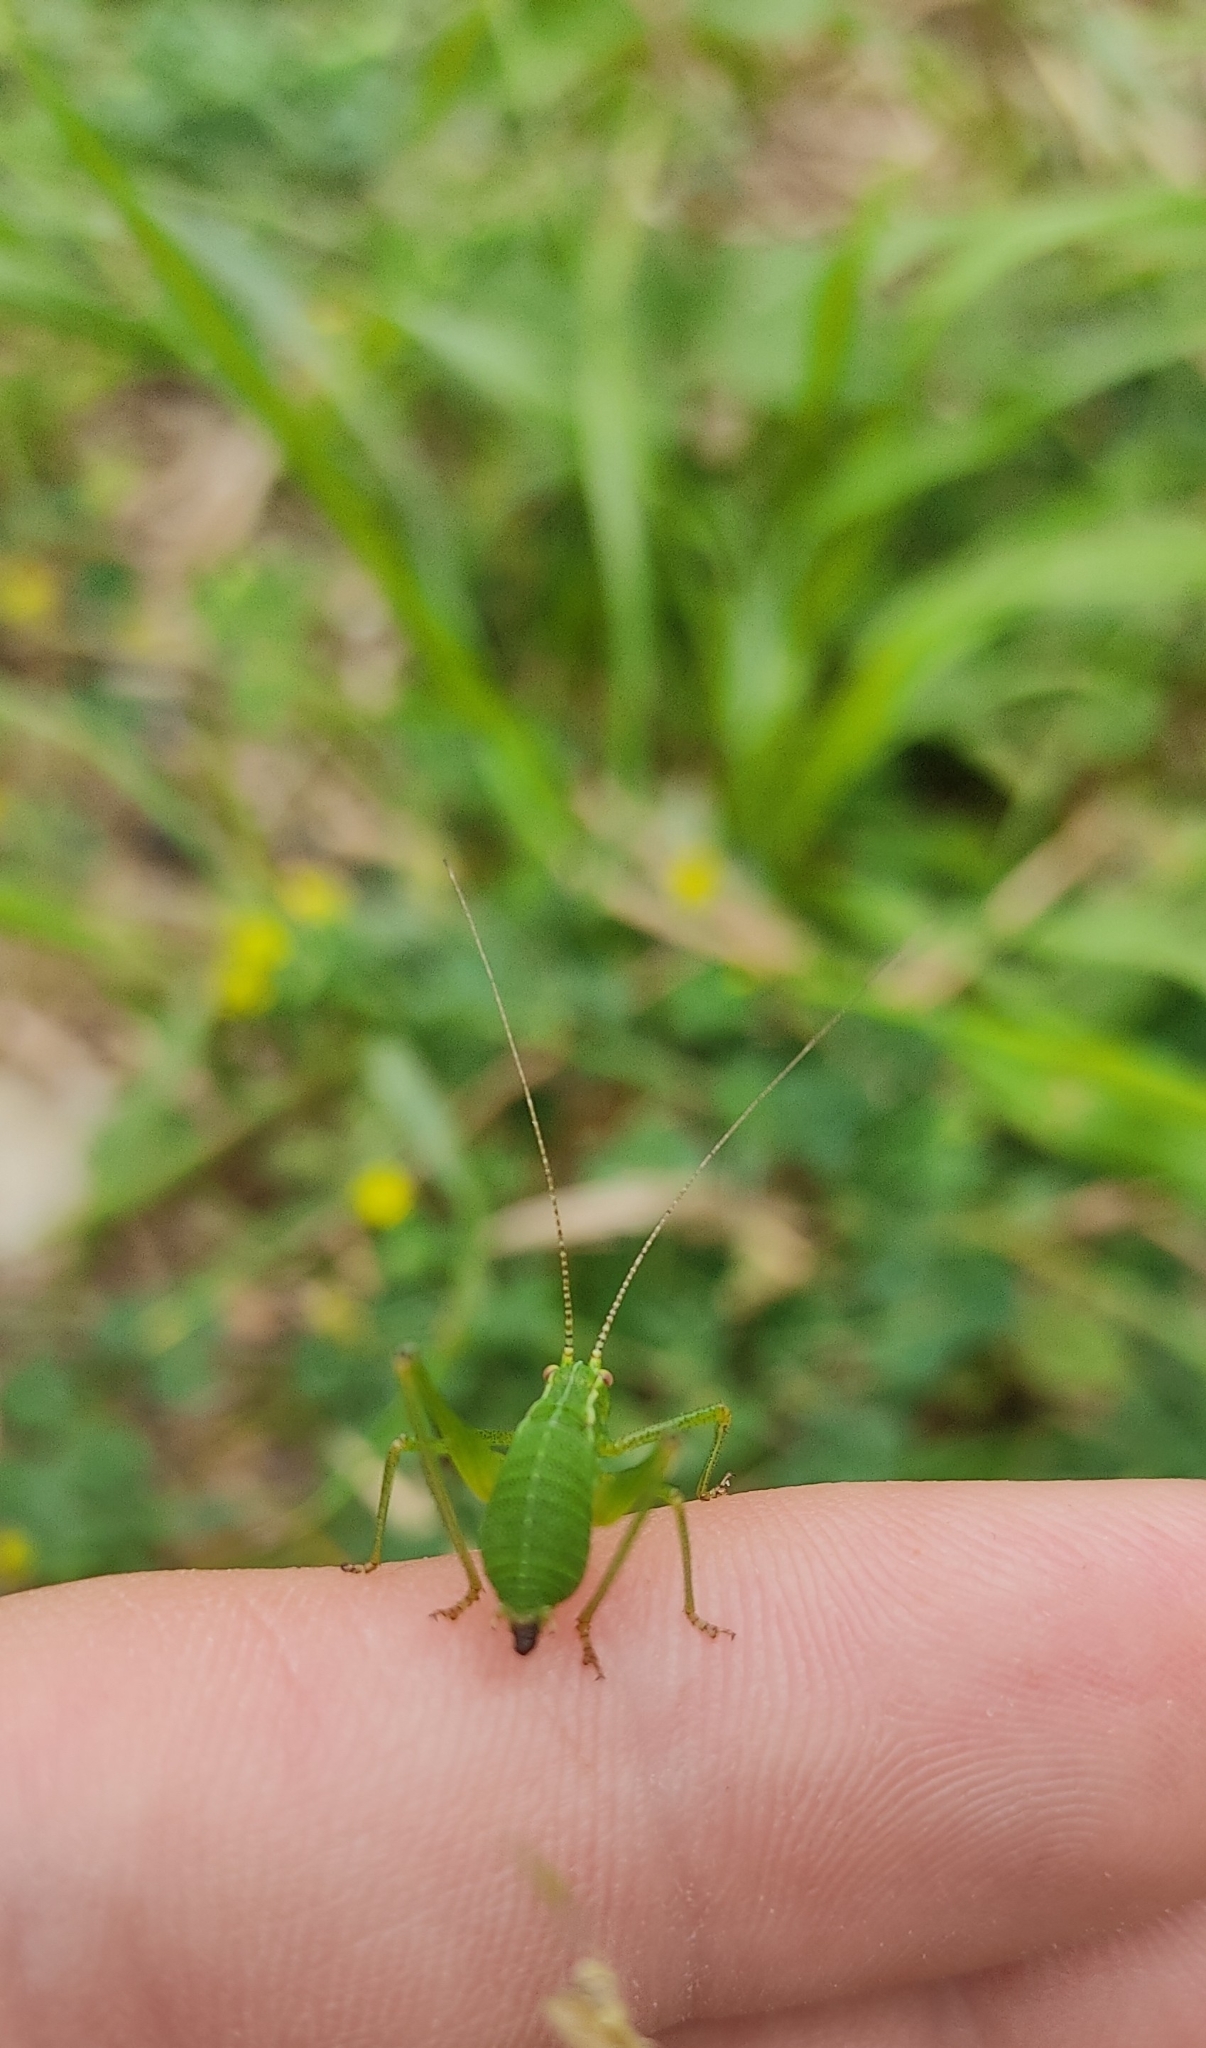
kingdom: Animalia
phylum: Arthropoda
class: Insecta
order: Orthoptera
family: Tettigoniidae
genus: Leptophyes
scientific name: Leptophyes punctatissima
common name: Speckled bush-cricket
